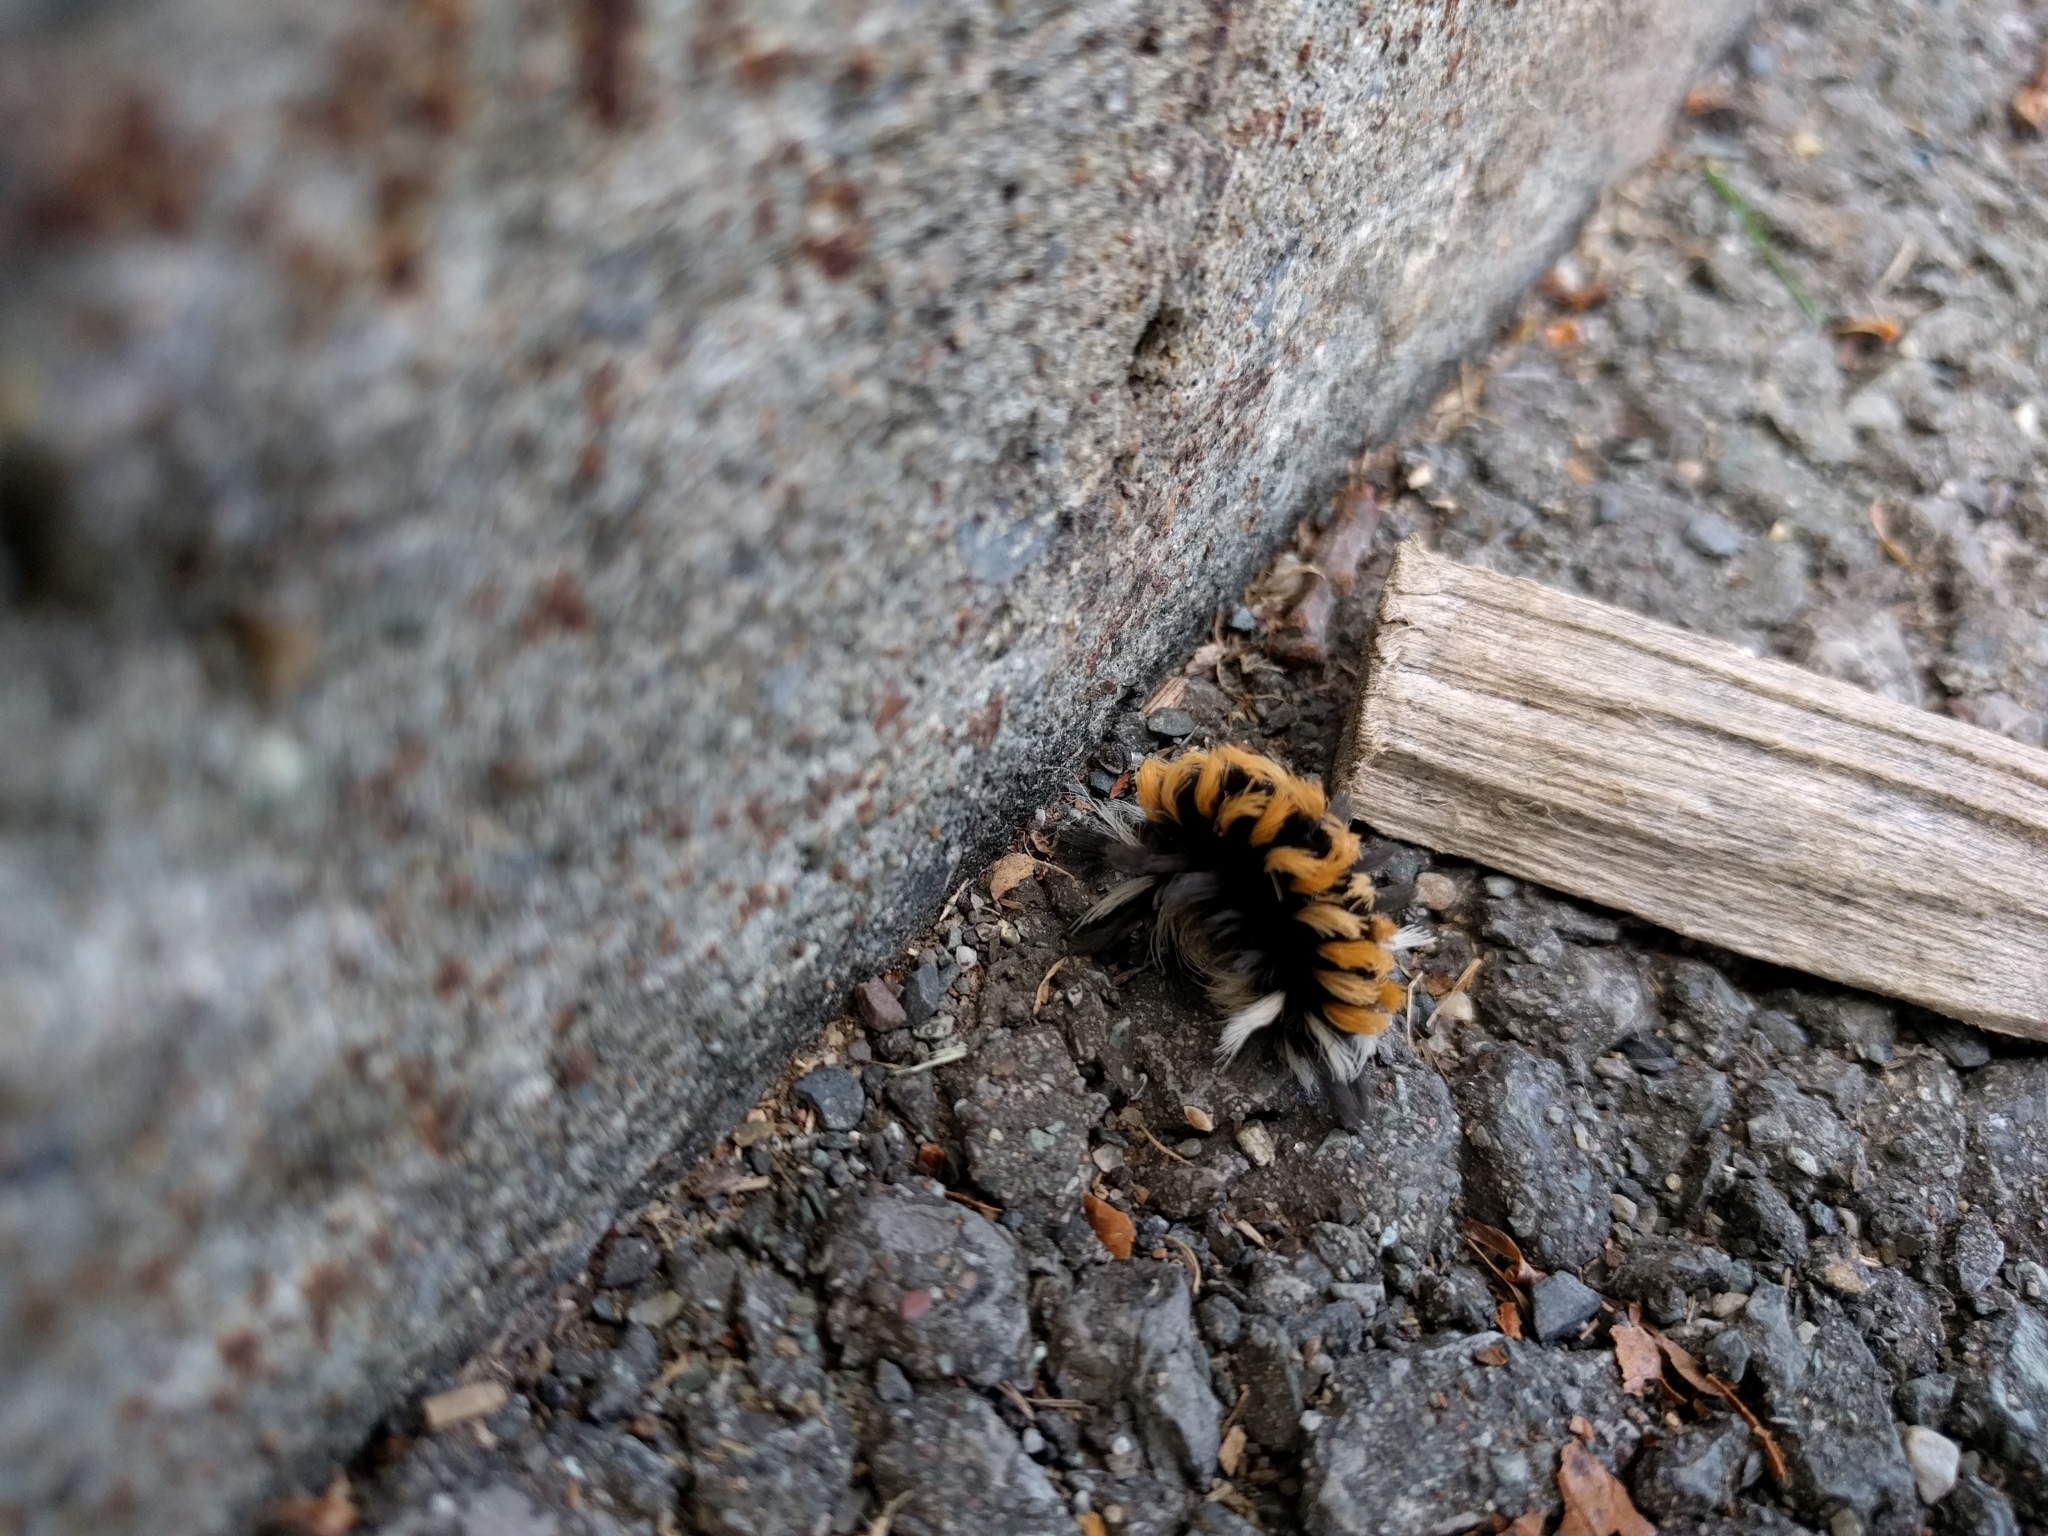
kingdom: Animalia
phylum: Arthropoda
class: Insecta
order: Lepidoptera
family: Erebidae
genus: Euchaetes
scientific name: Euchaetes egle
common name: Milkweed tussock moth
